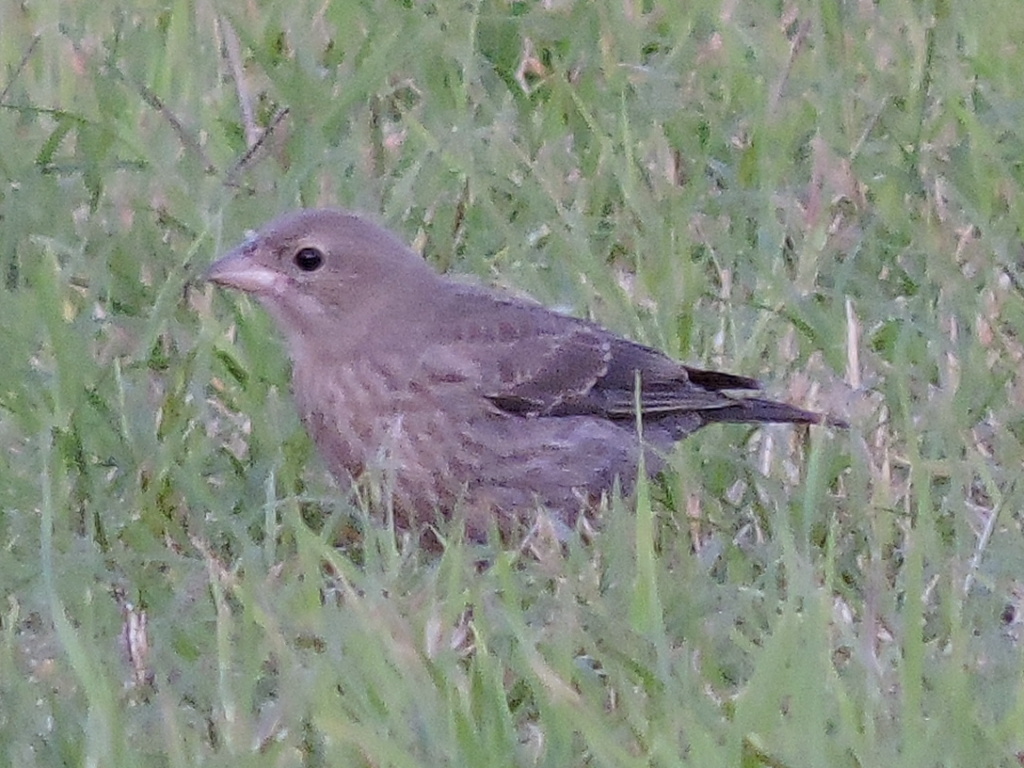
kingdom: Animalia
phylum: Chordata
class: Aves
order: Passeriformes
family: Icteridae
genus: Molothrus
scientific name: Molothrus ater
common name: Brown-headed cowbird
